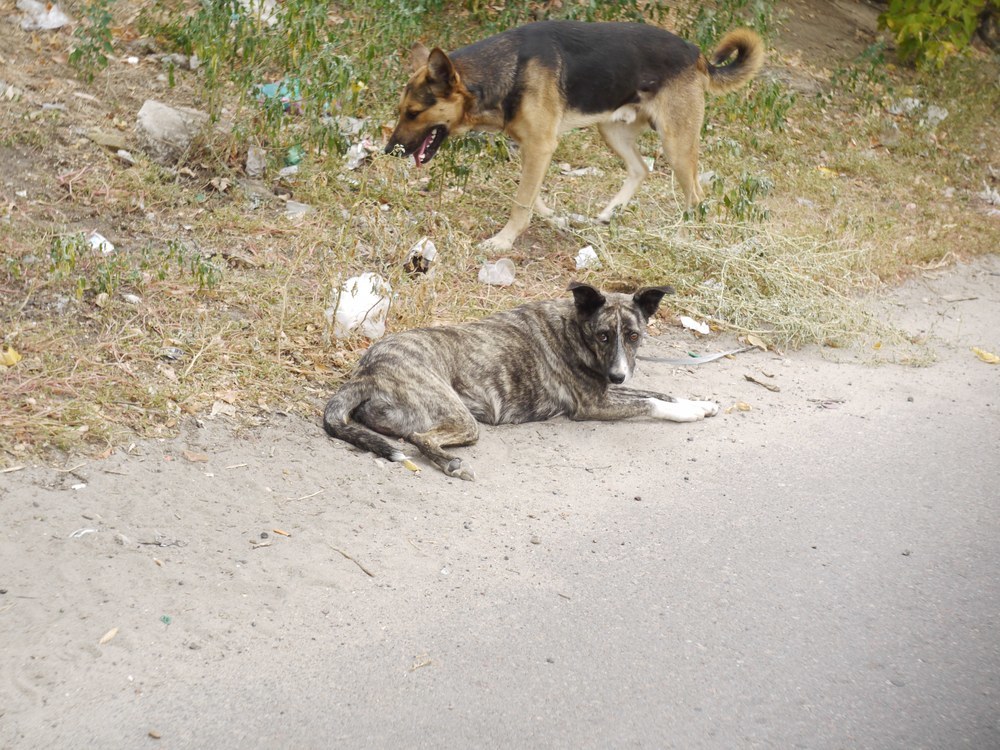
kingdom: Animalia
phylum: Chordata
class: Mammalia
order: Carnivora
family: Canidae
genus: Canis
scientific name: Canis lupus
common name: Gray wolf
